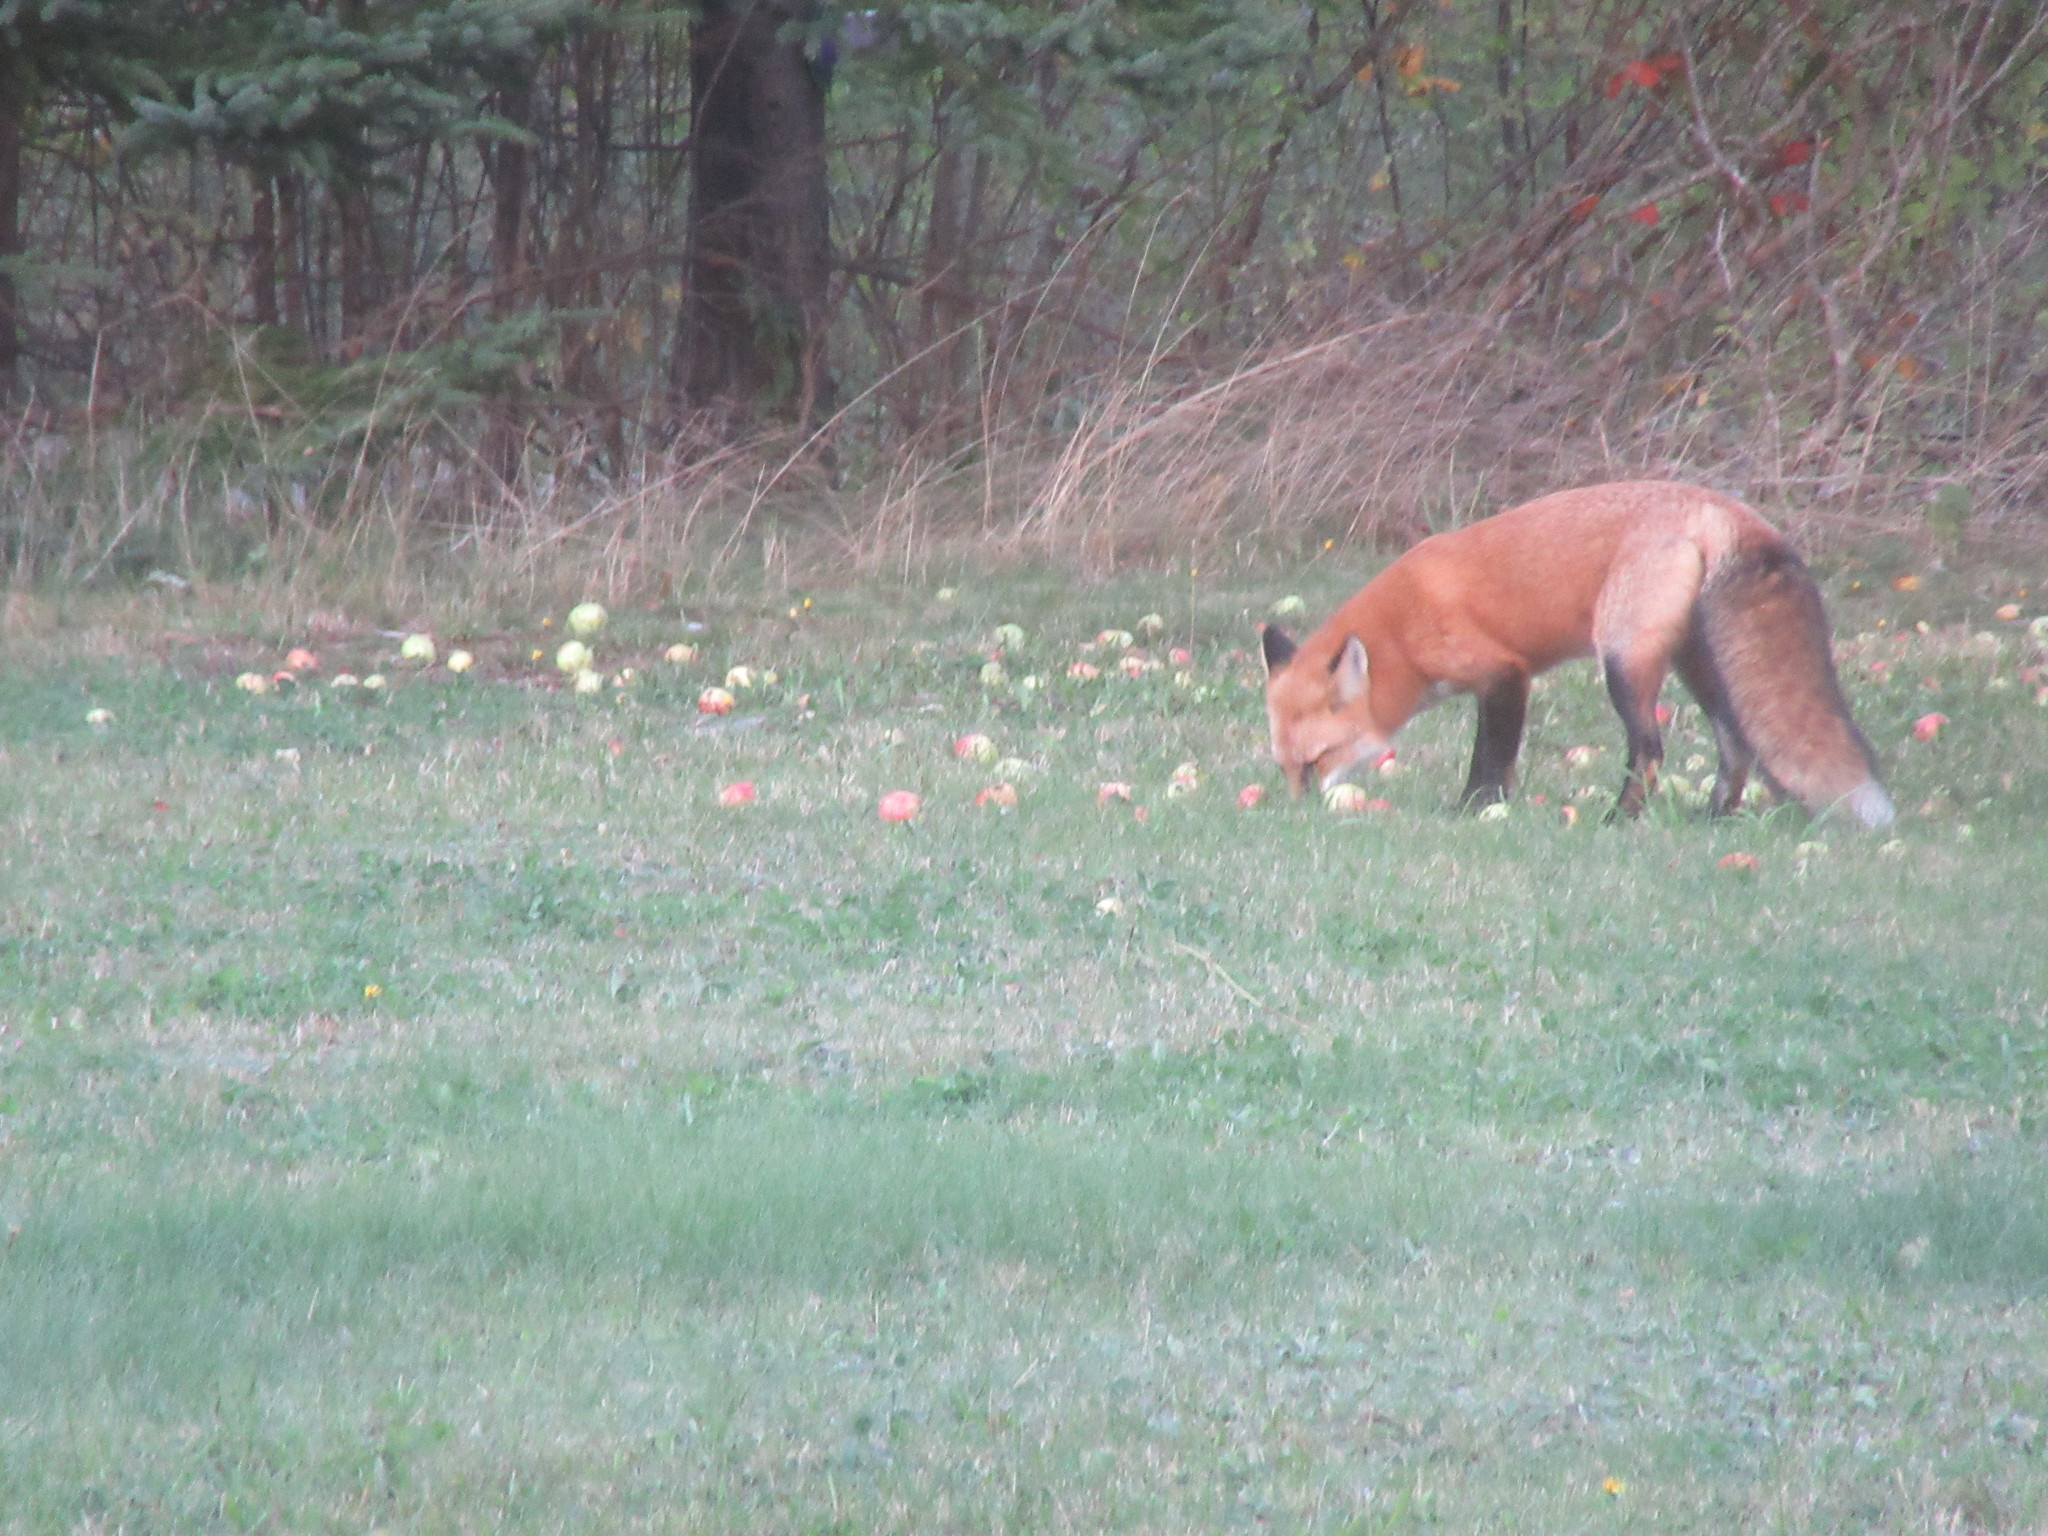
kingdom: Animalia
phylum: Chordata
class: Mammalia
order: Carnivora
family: Canidae
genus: Vulpes
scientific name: Vulpes vulpes
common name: Red fox
